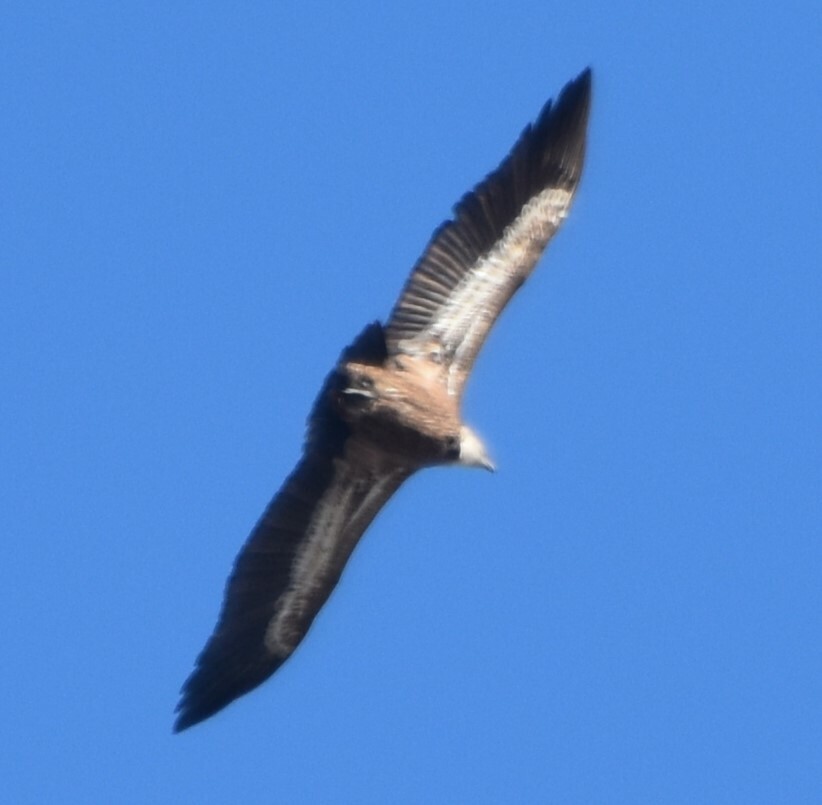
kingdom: Animalia
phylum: Chordata
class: Aves
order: Accipitriformes
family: Accipitridae
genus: Gyps
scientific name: Gyps fulvus
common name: Griffon vulture
